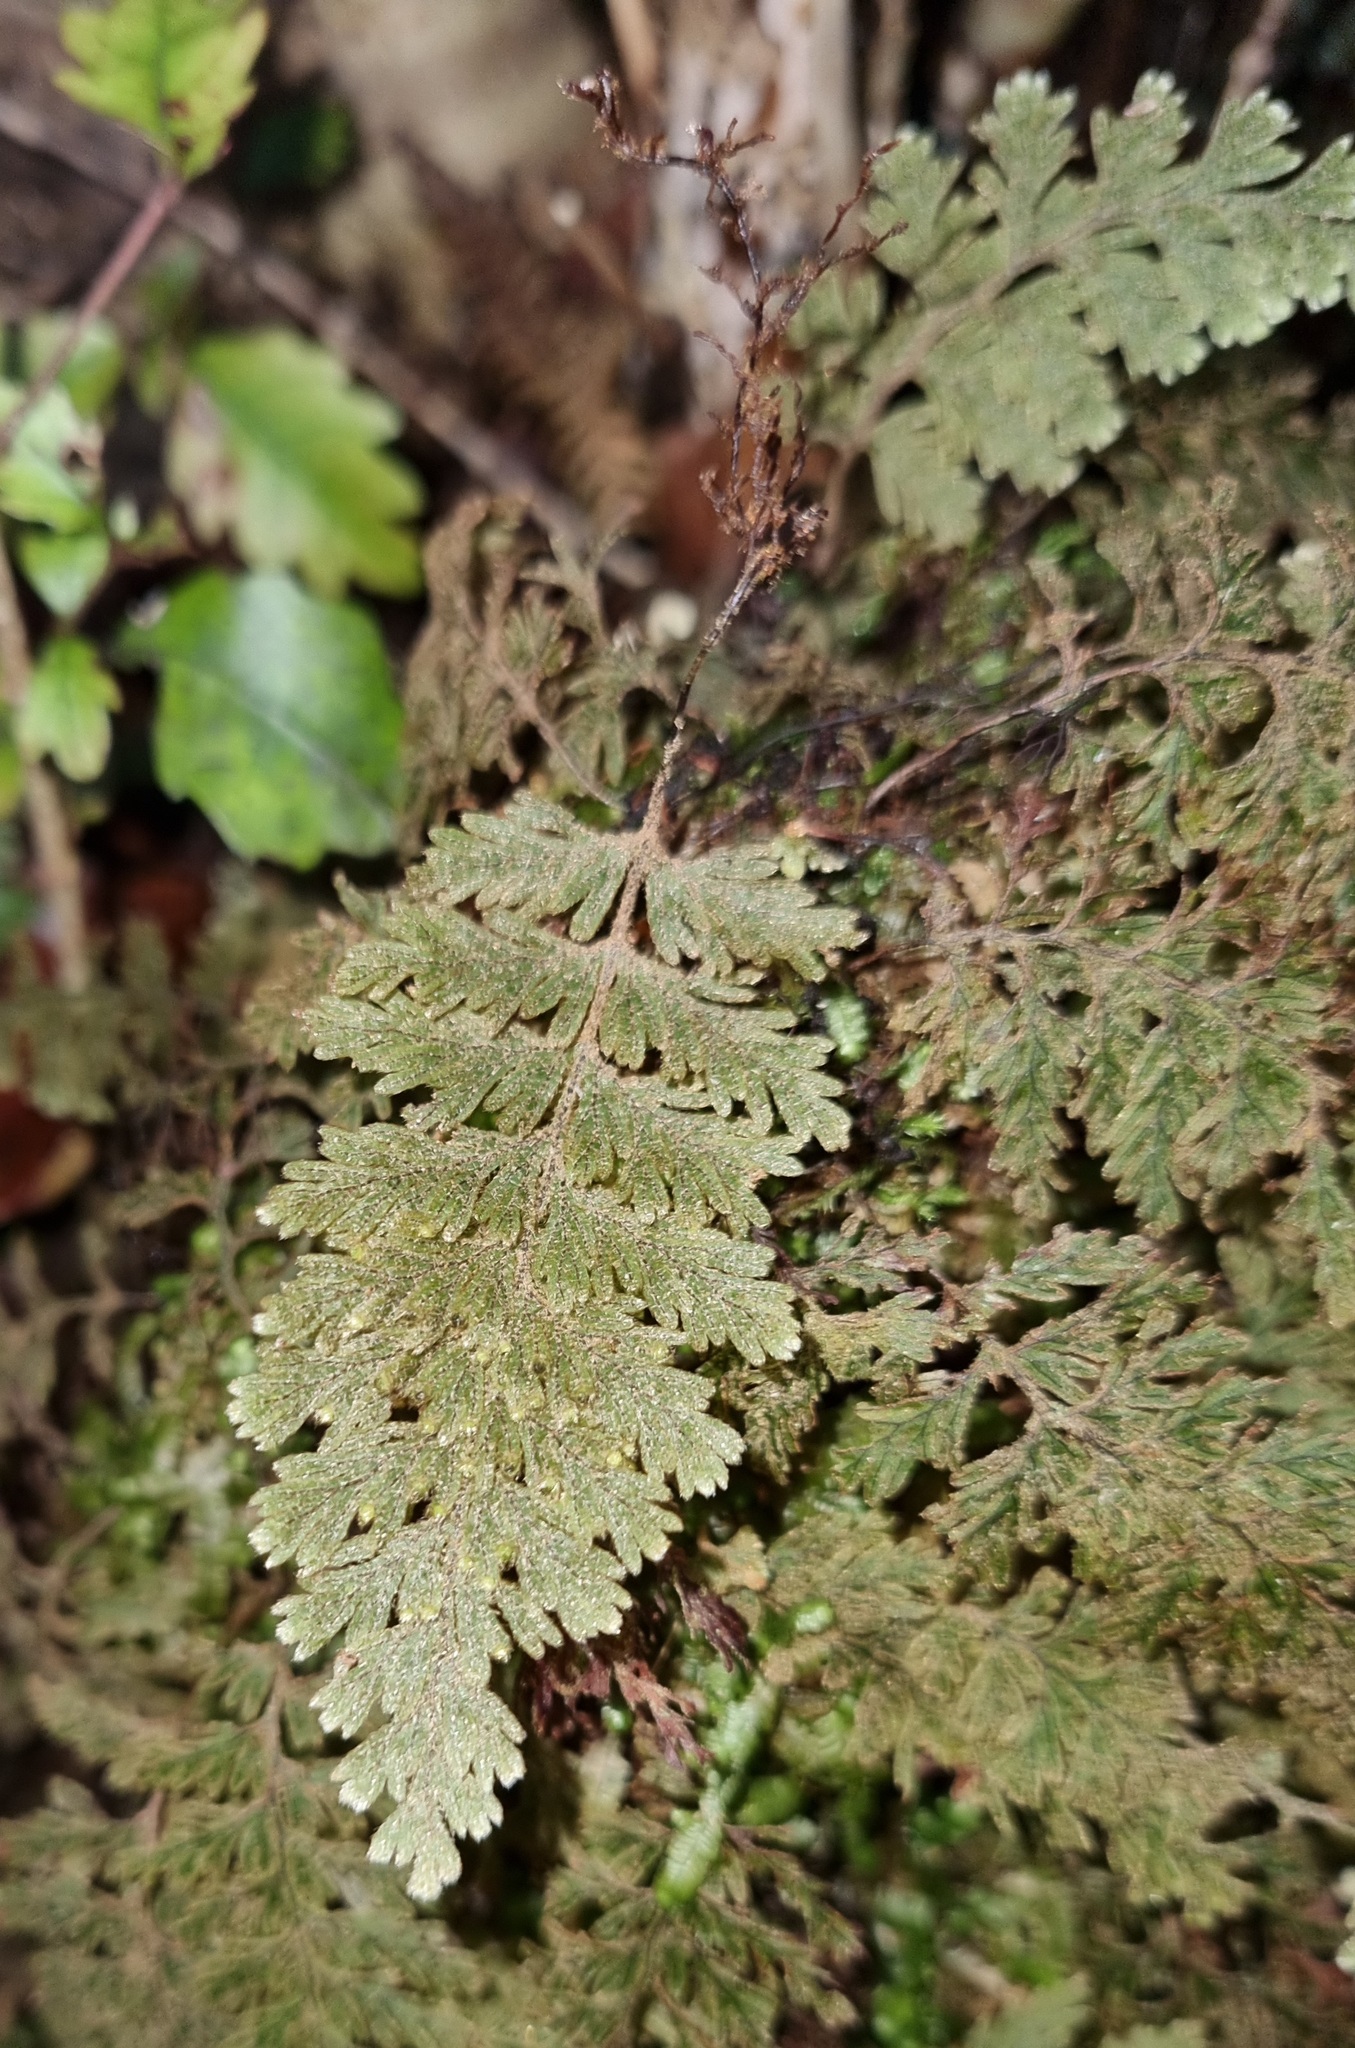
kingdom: Plantae
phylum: Tracheophyta
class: Polypodiopsida
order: Hymenophyllales
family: Hymenophyllaceae
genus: Hymenophyllum
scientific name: Hymenophyllum frankliniae
